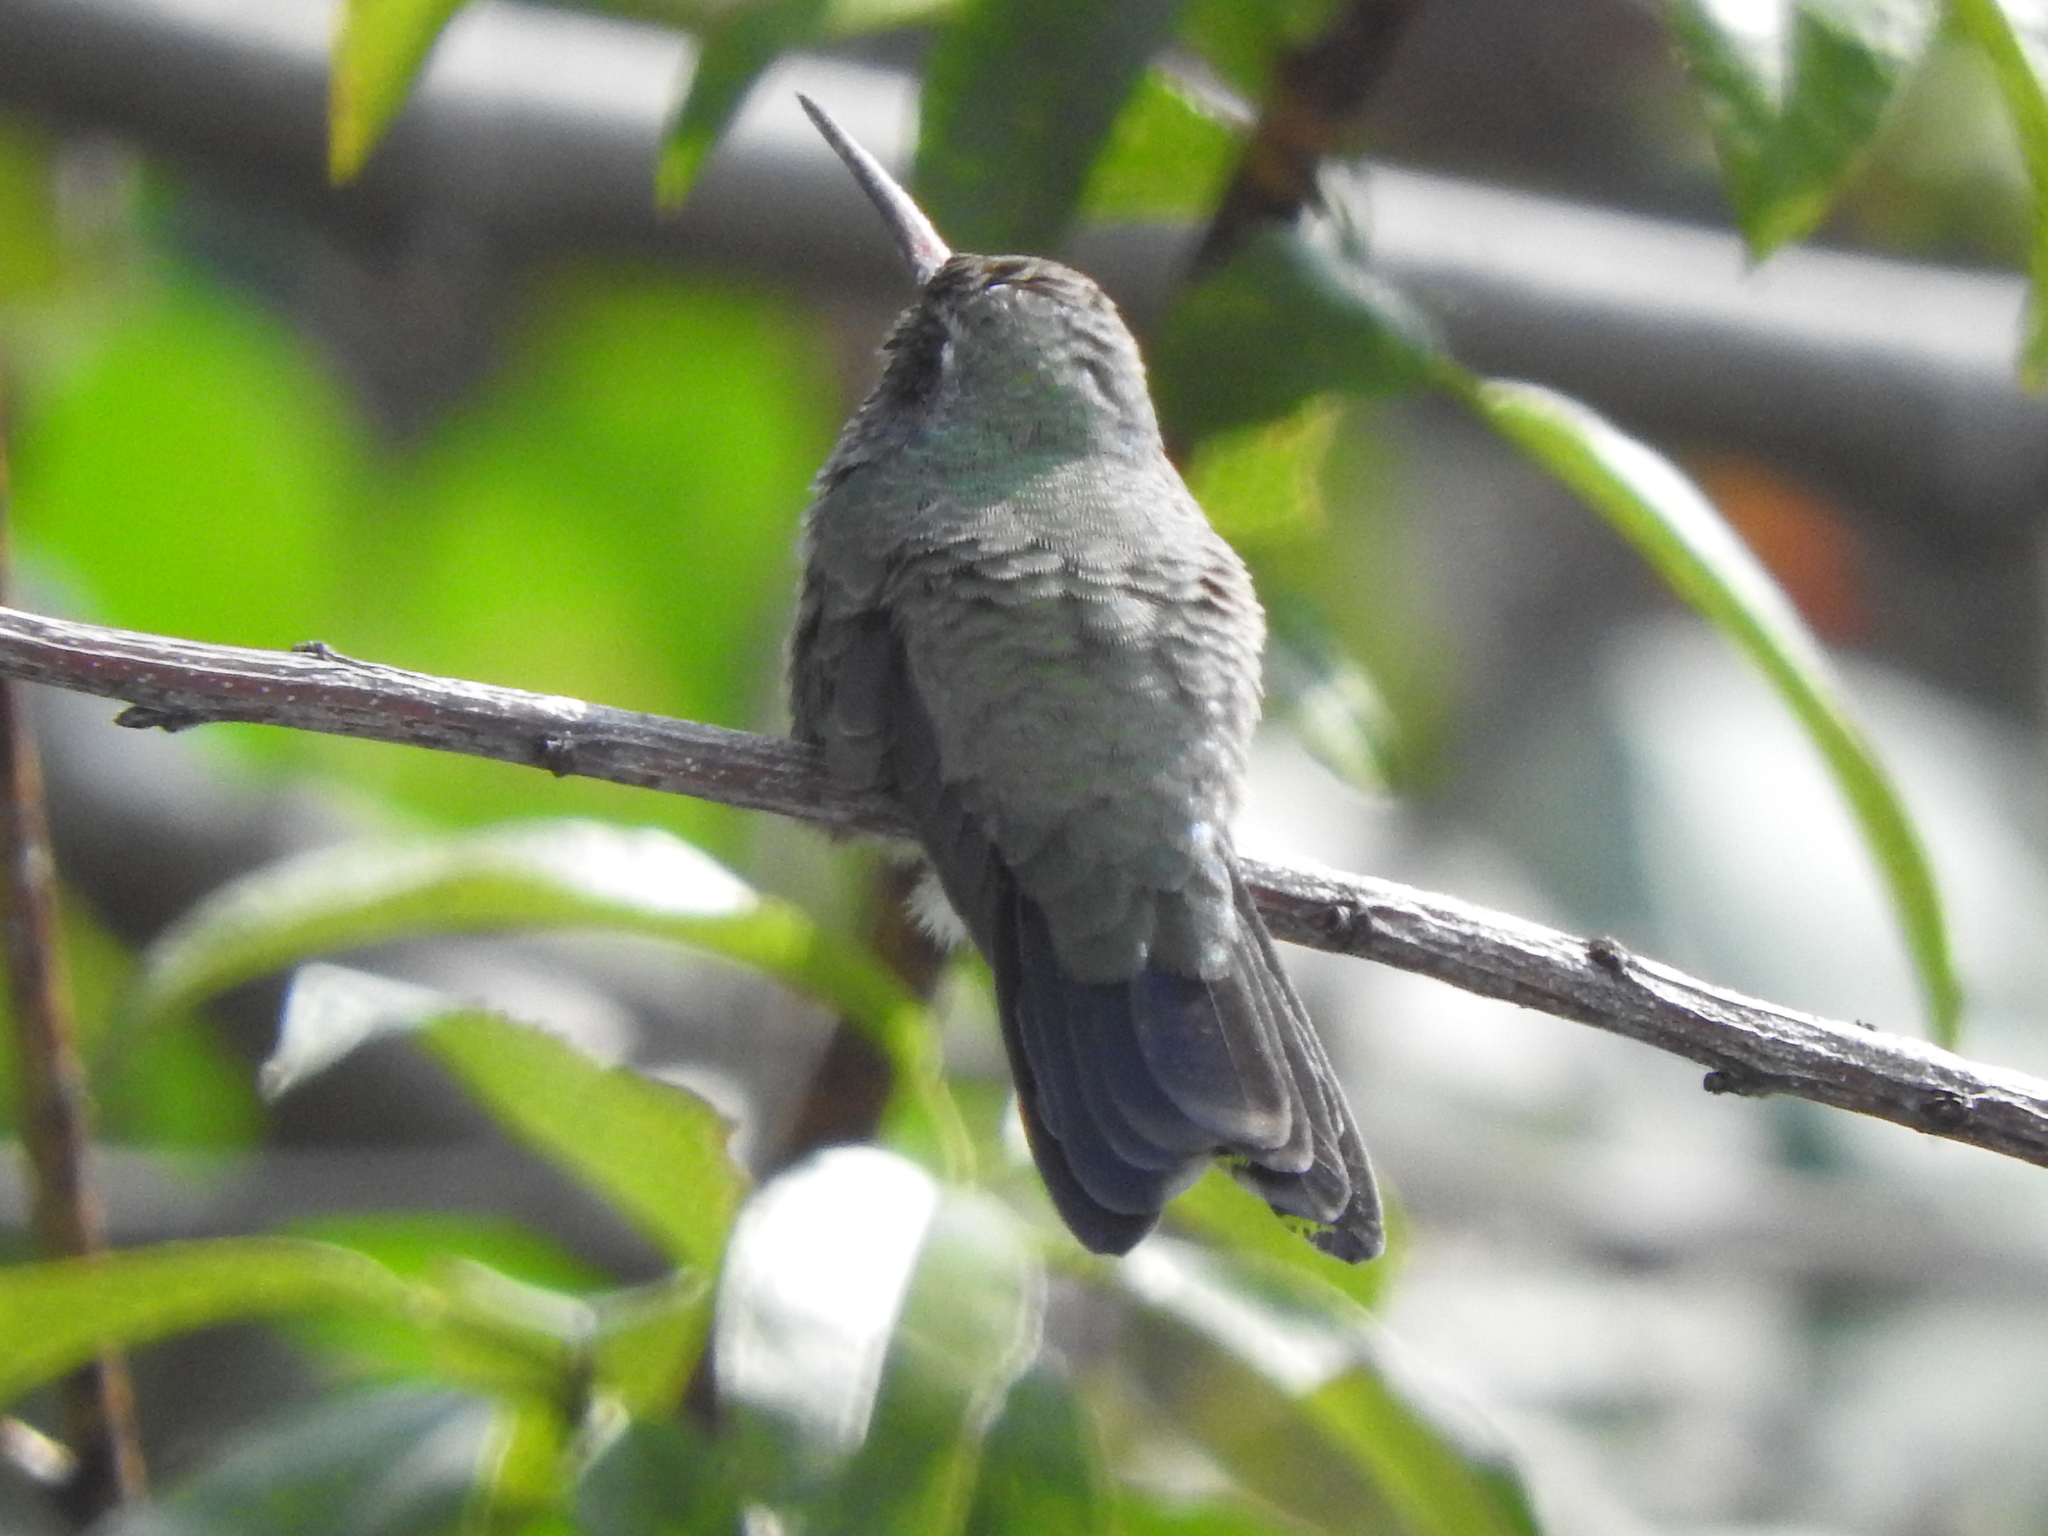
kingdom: Animalia
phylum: Chordata
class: Aves
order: Apodiformes
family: Trochilidae
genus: Cynanthus
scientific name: Cynanthus latirostris
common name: Broad-billed hummingbird
